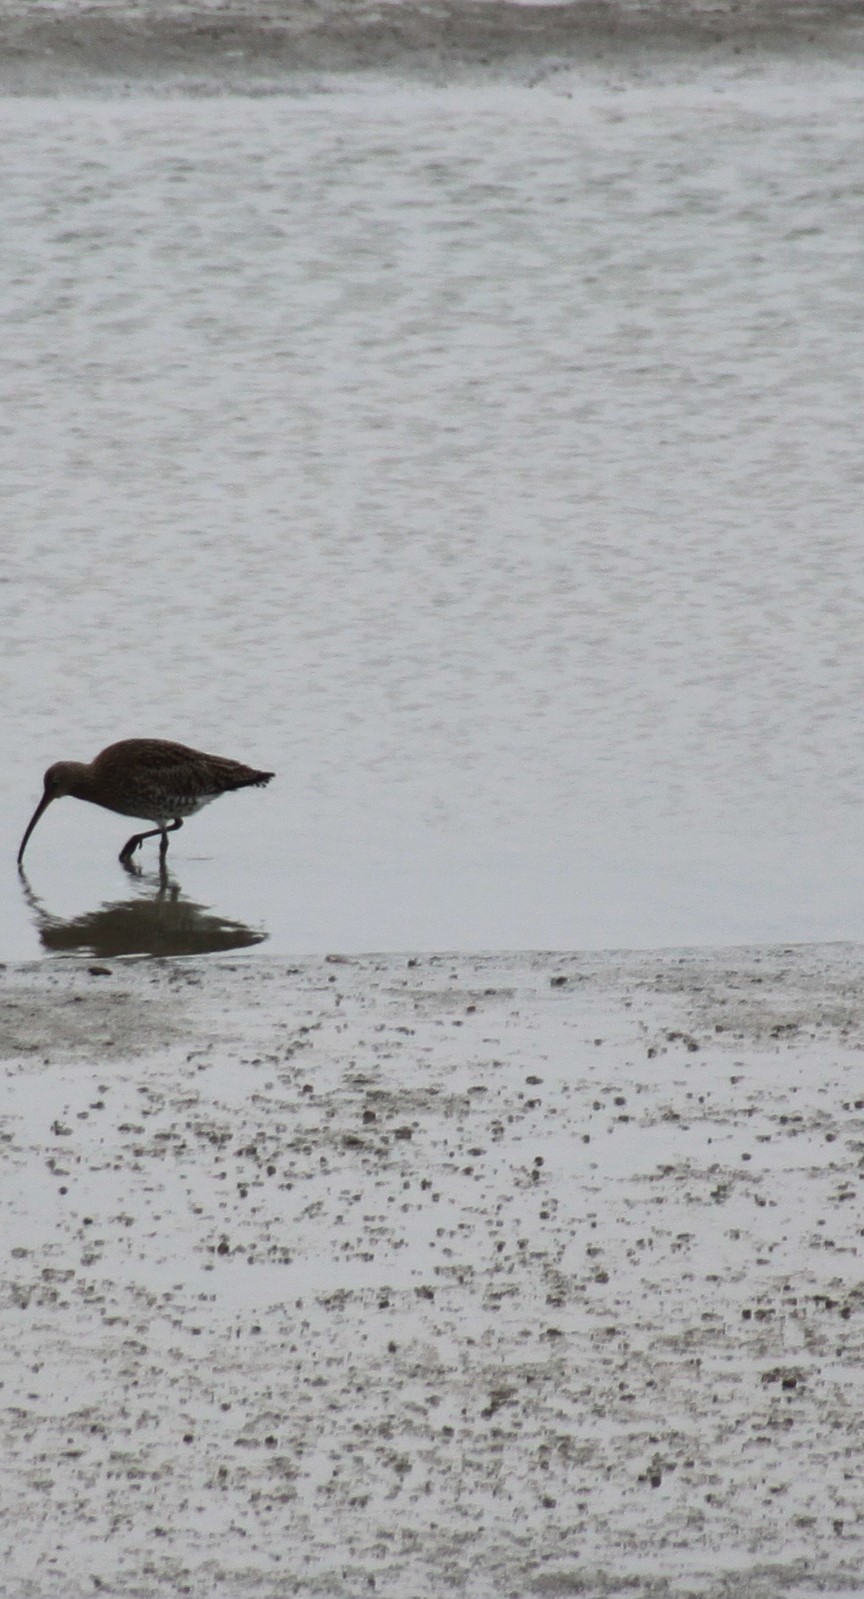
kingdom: Animalia
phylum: Chordata
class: Aves
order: Charadriiformes
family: Scolopacidae
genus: Numenius
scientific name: Numenius arquata
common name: Eurasian curlew
